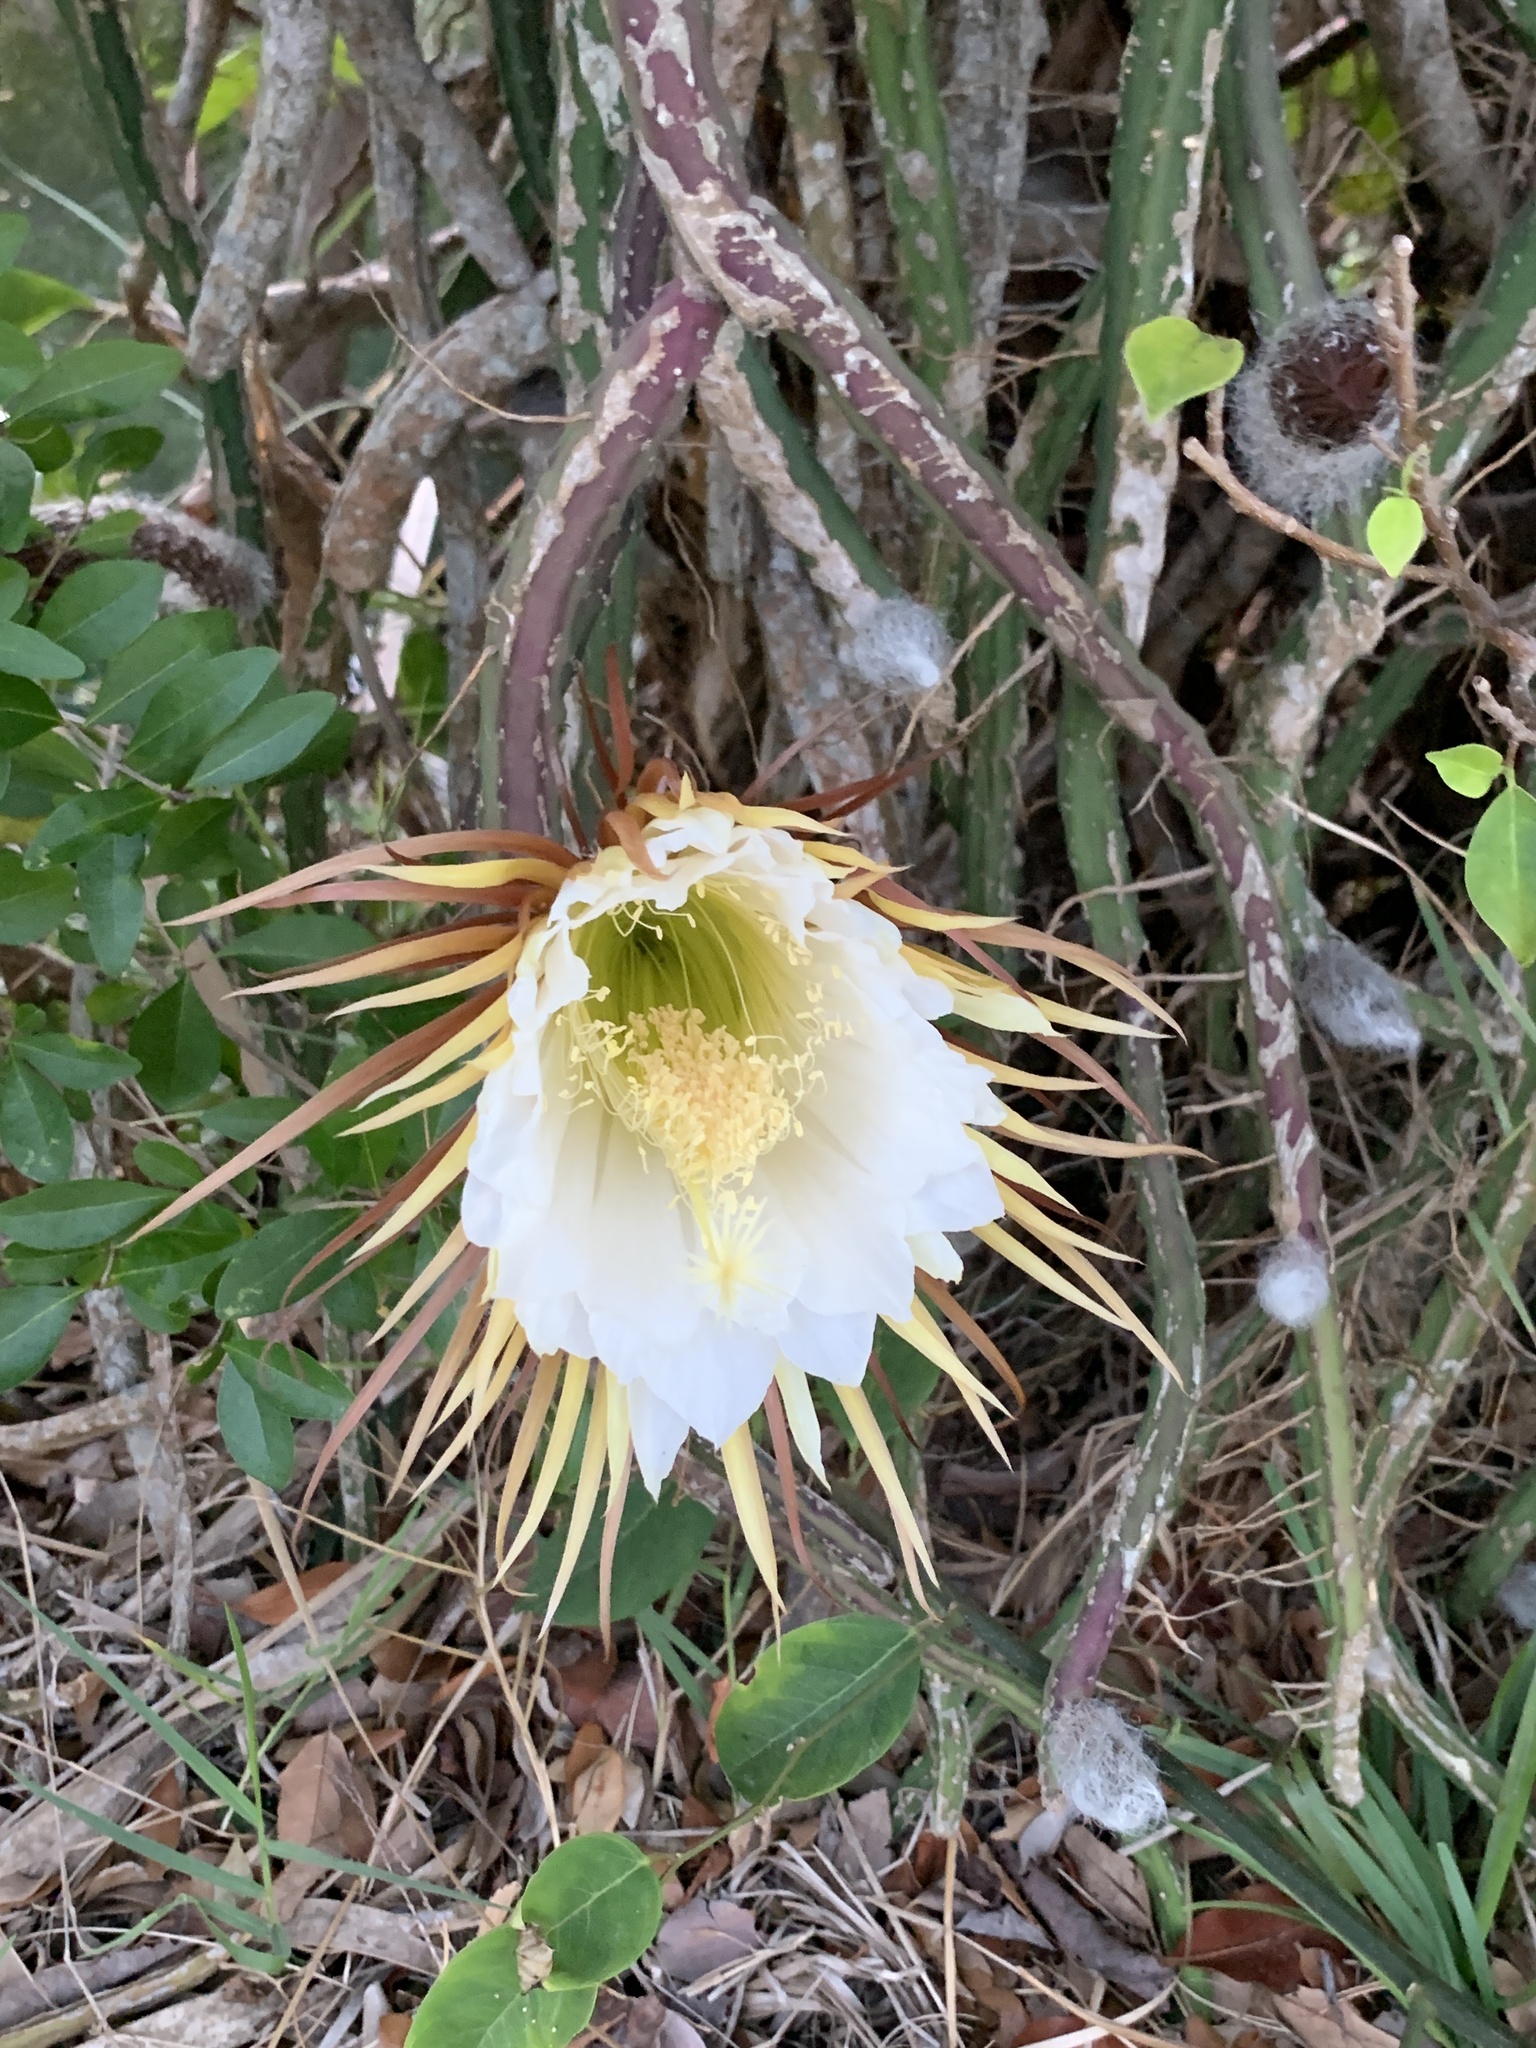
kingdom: Plantae
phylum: Tracheophyta
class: Magnoliopsida
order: Caryophyllales
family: Cactaceae
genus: Selenicereus
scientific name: Selenicereus pteranthus
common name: Princess of the night
